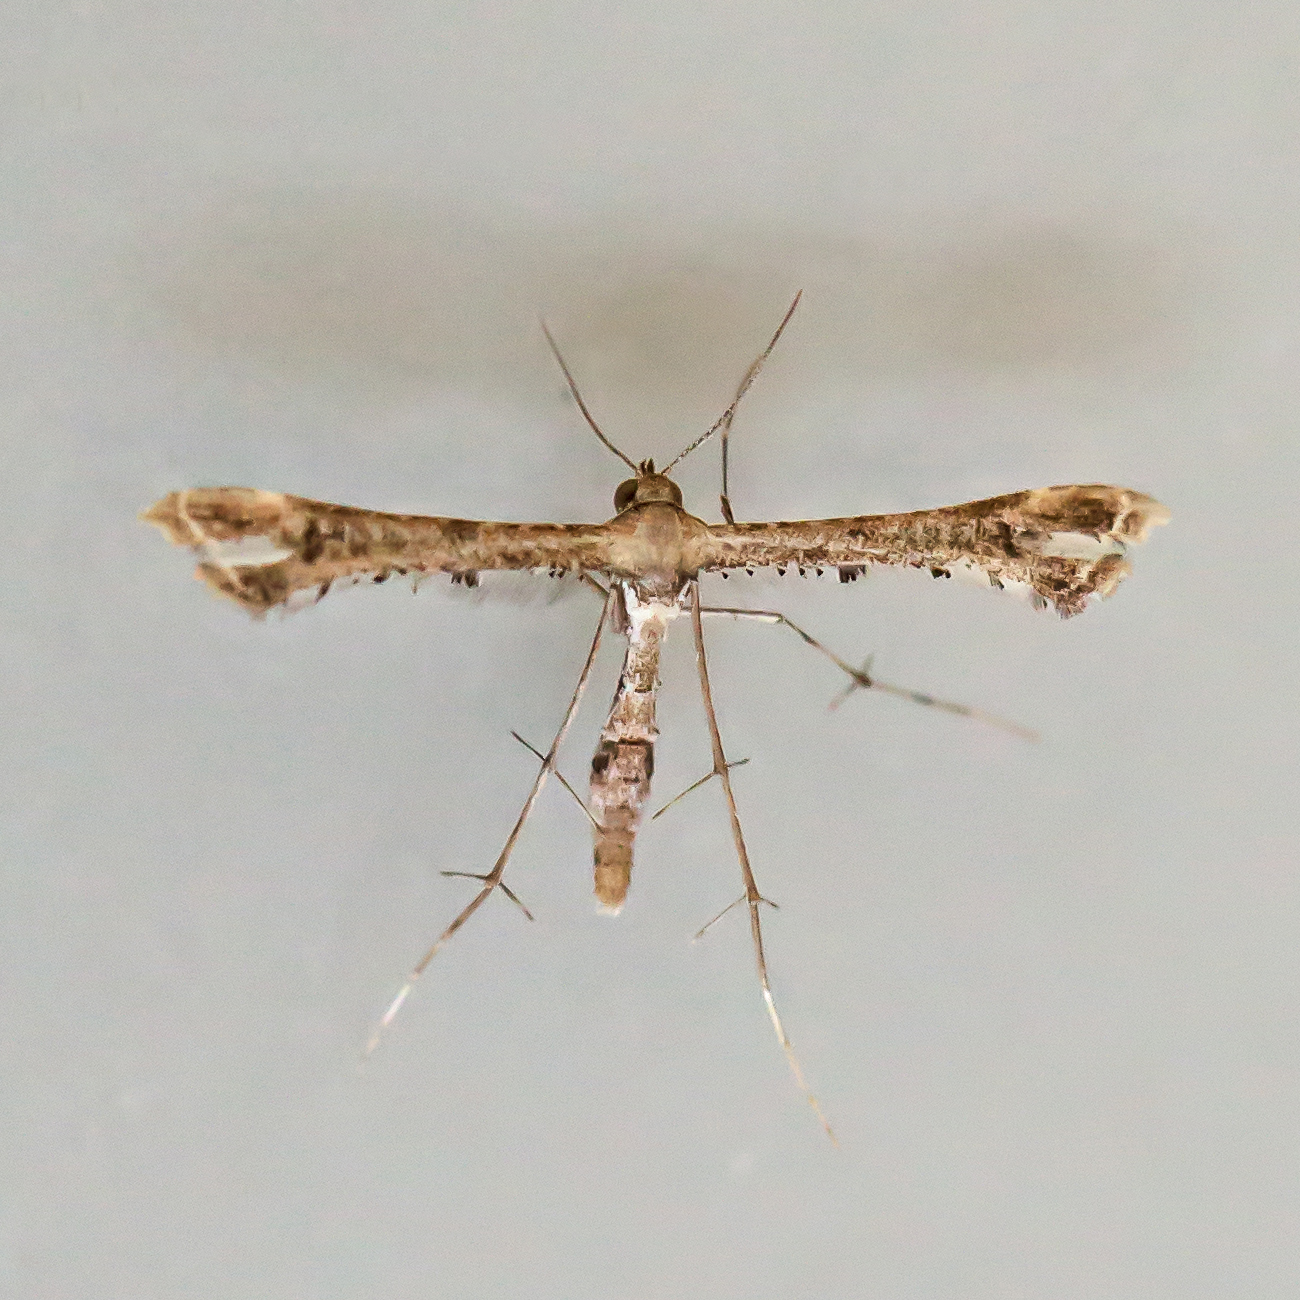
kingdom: Animalia
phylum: Arthropoda
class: Insecta
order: Lepidoptera
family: Pterophoridae
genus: Lantanophaga
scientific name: Lantanophaga pusillidactylus
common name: Moth
